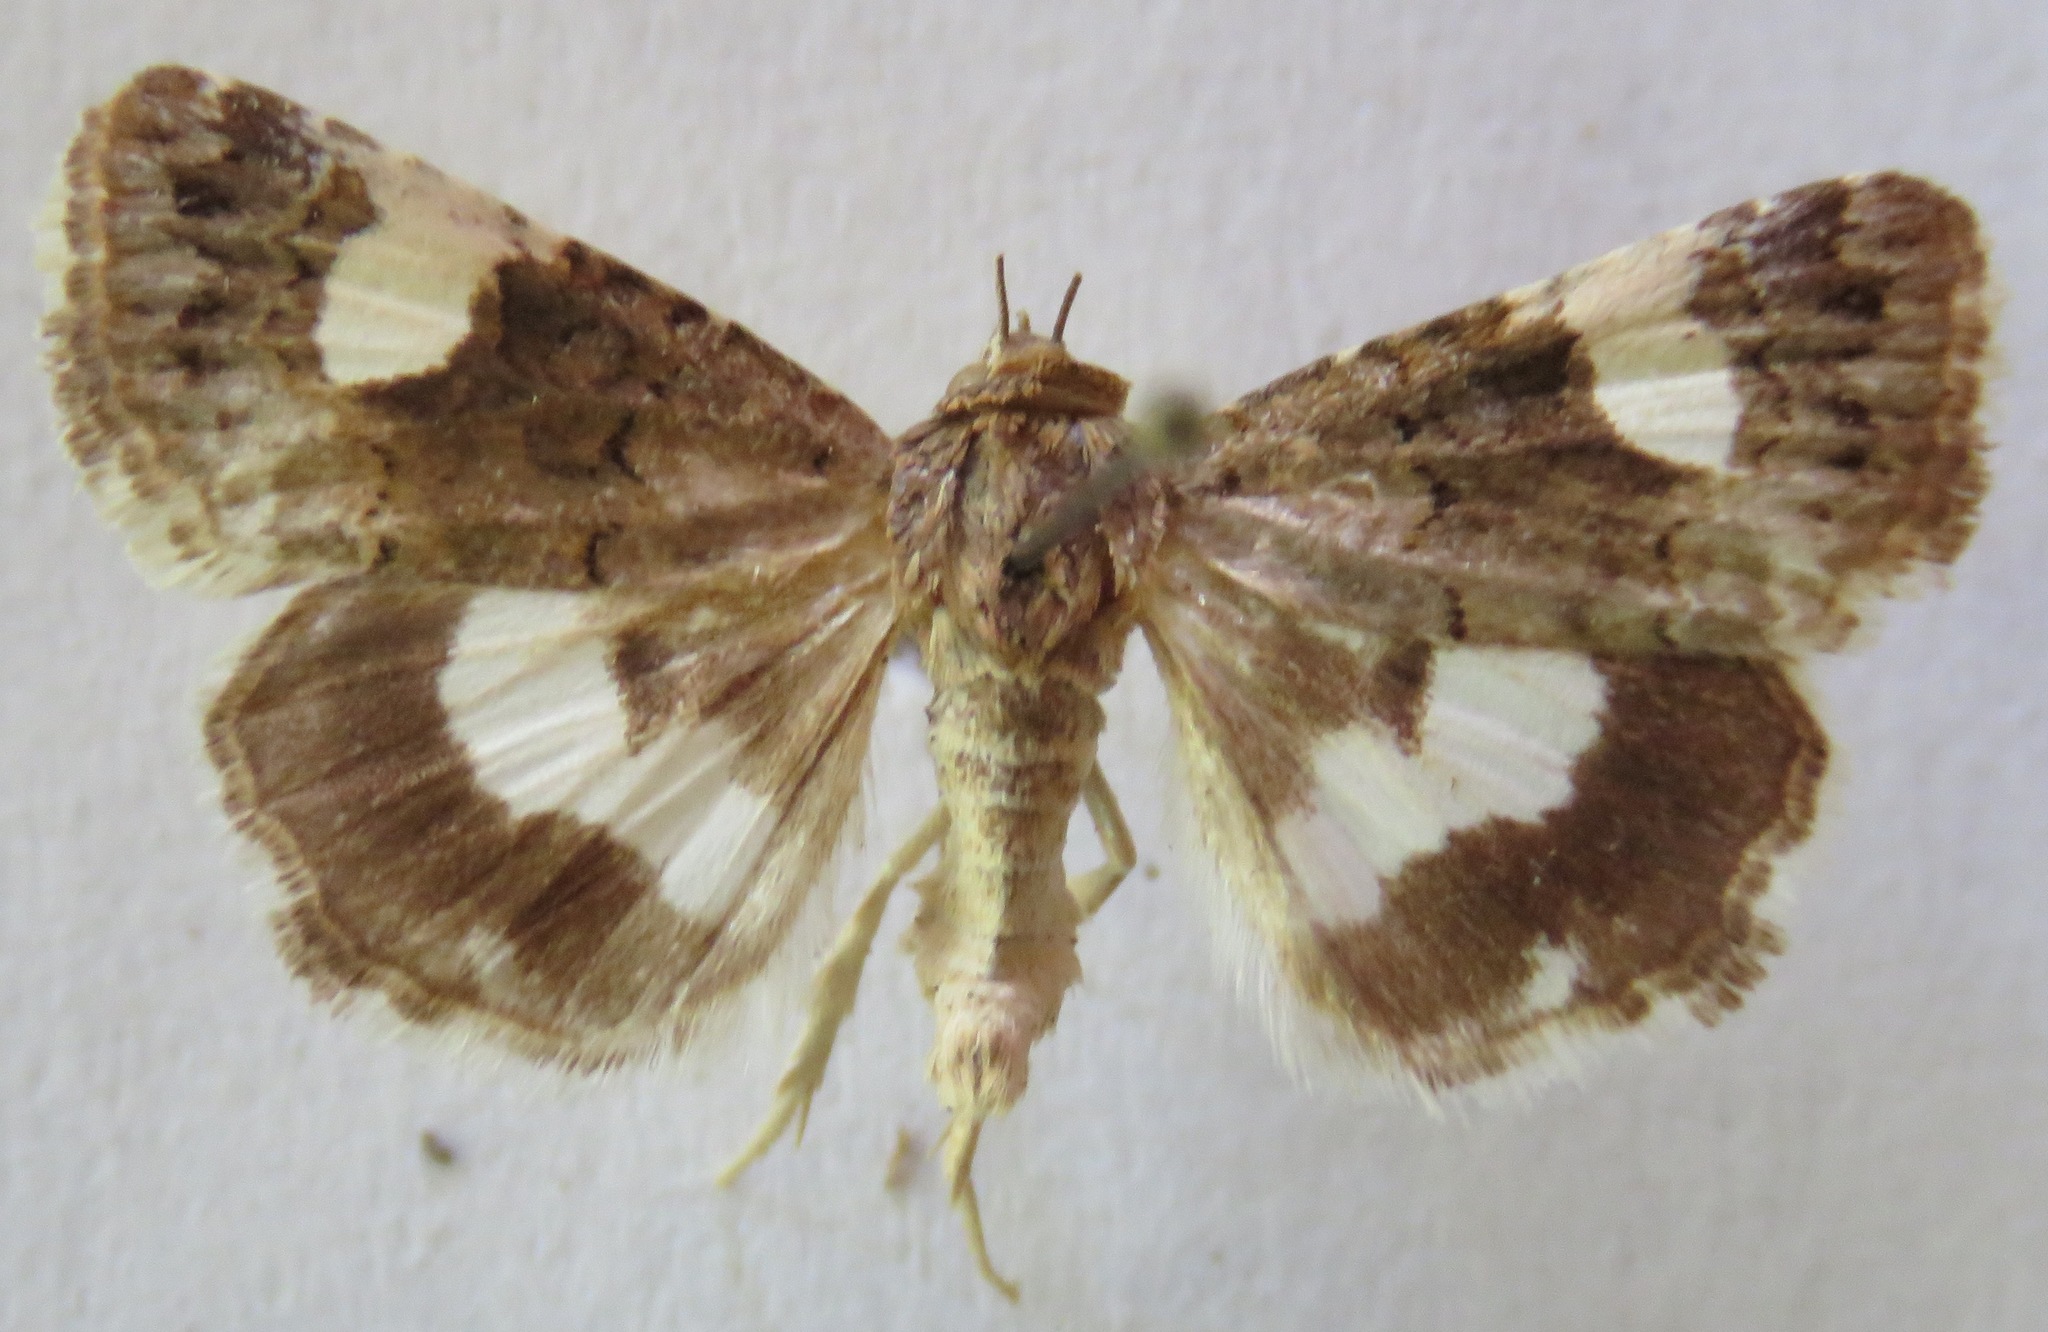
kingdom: Animalia
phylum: Arthropoda
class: Insecta
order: Lepidoptera
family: Erebidae
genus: Tyta
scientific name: Tyta luctuosa
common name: Four-spotted
